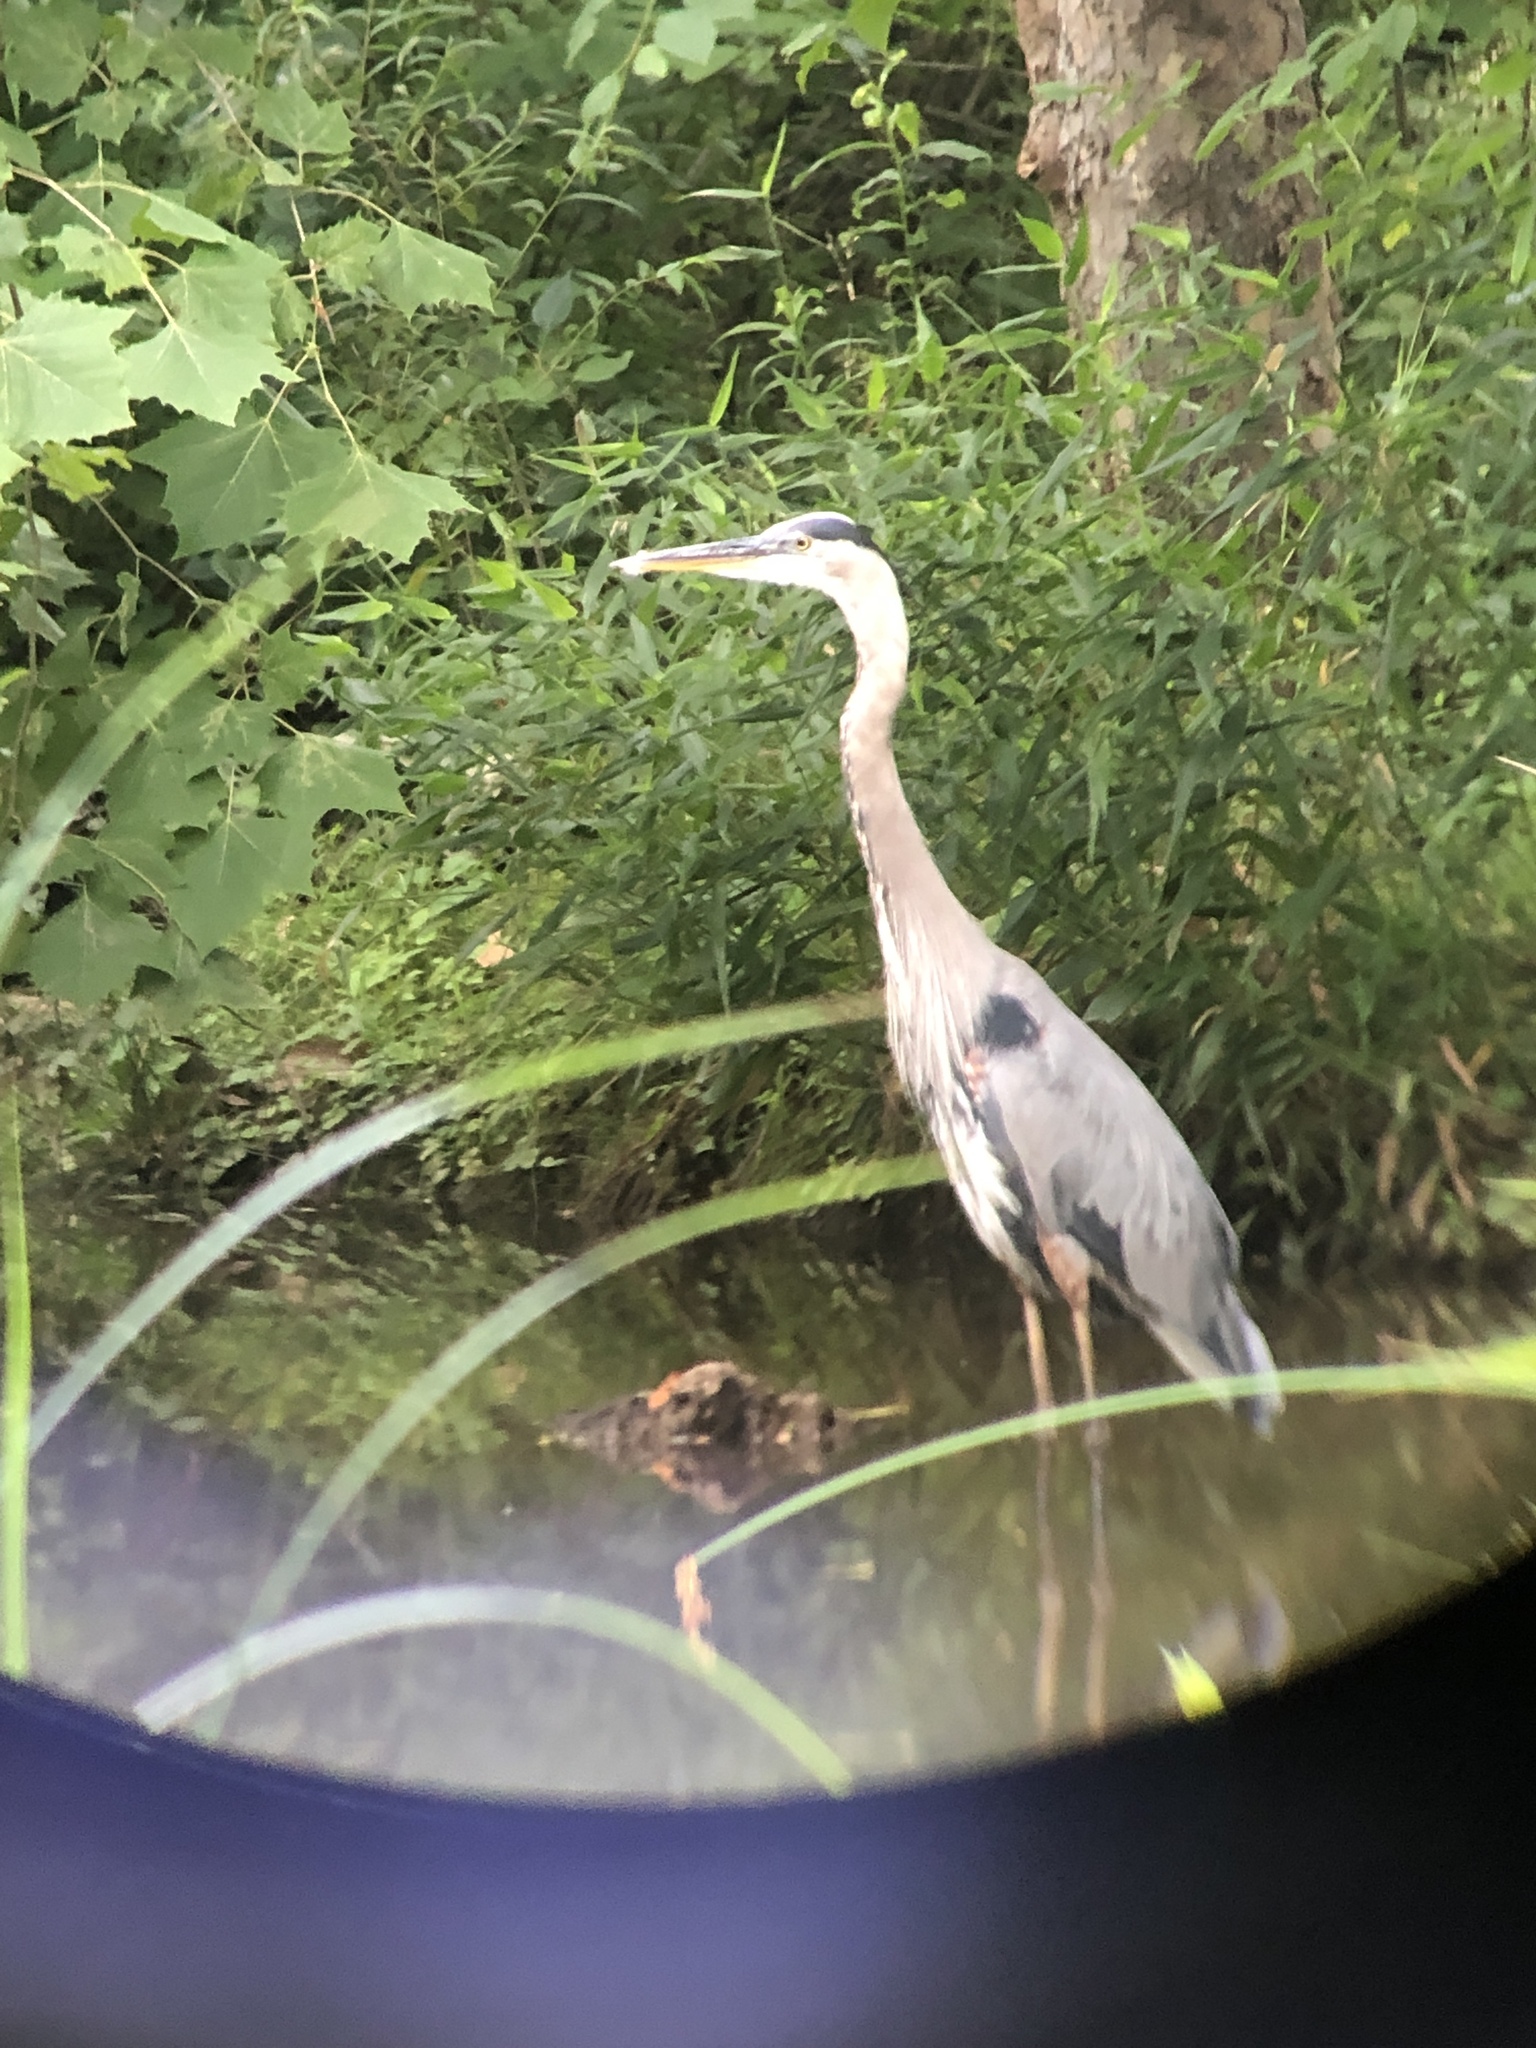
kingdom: Animalia
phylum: Chordata
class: Aves
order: Pelecaniformes
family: Ardeidae
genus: Ardea
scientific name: Ardea herodias
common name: Great blue heron
